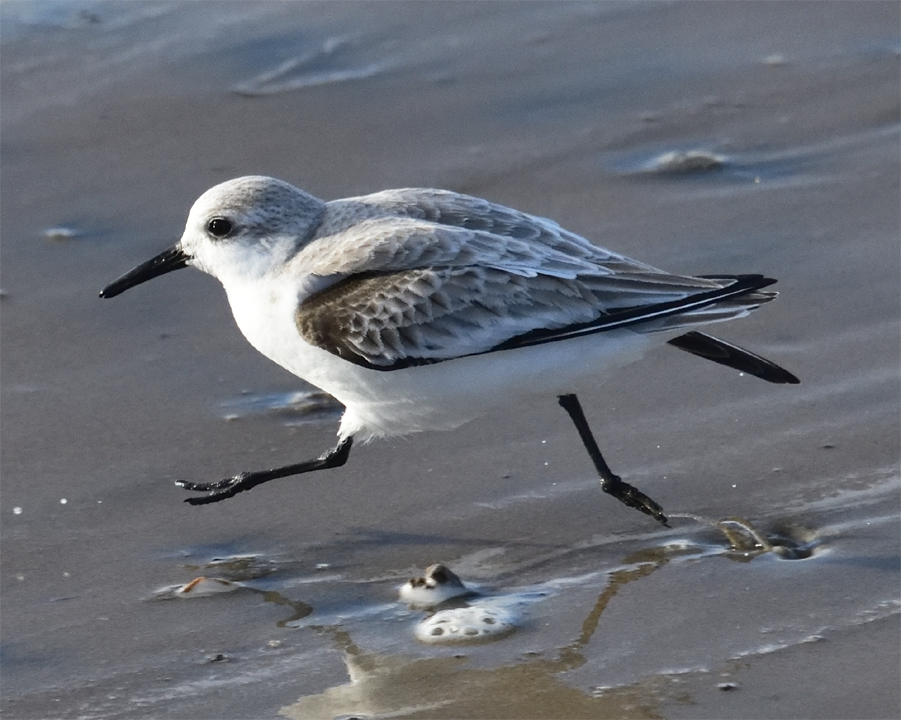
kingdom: Animalia
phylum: Chordata
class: Aves
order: Charadriiformes
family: Scolopacidae
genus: Calidris
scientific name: Calidris alba
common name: Sanderling
